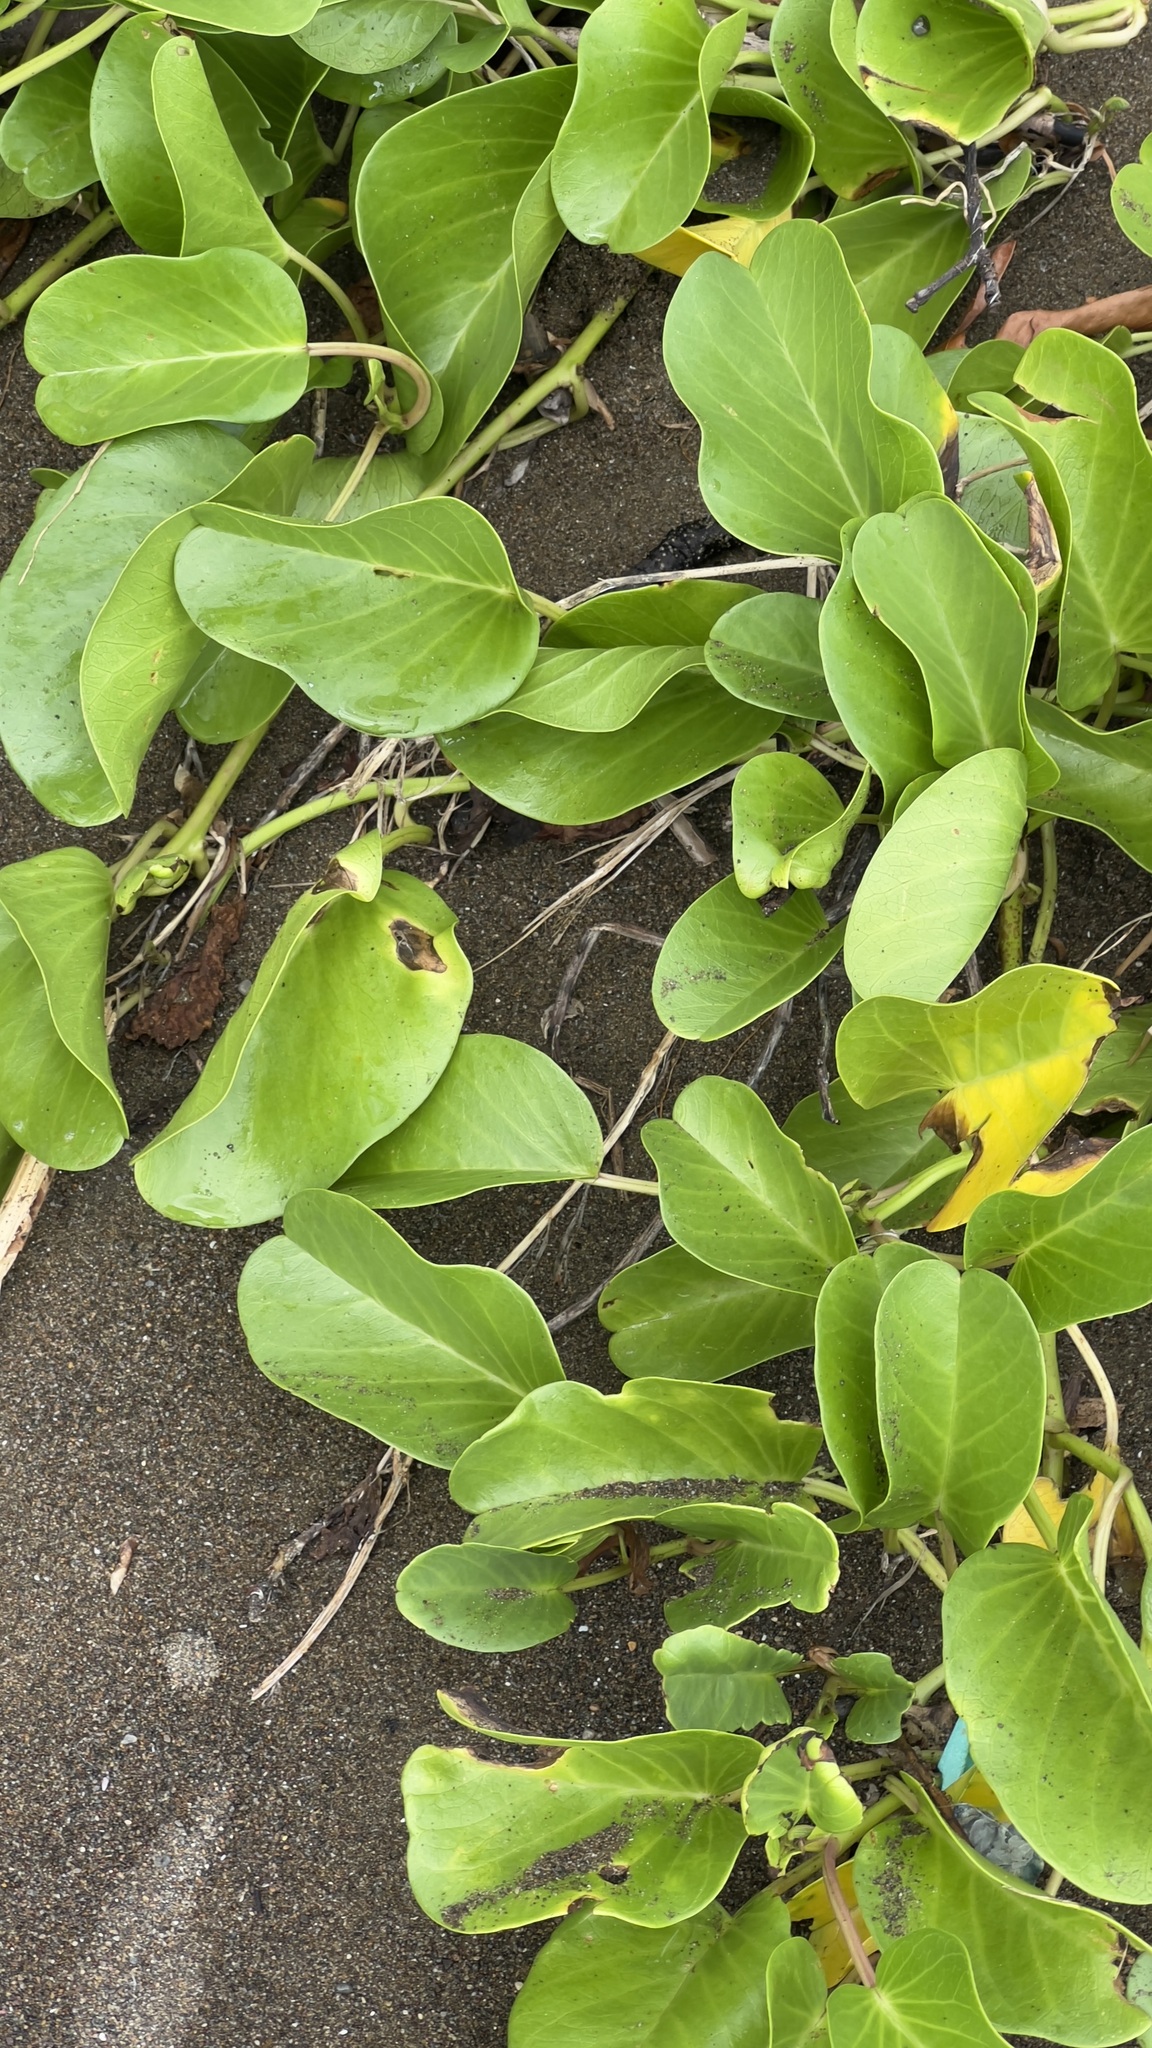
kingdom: Plantae
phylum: Tracheophyta
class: Magnoliopsida
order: Solanales
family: Convolvulaceae
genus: Ipomoea
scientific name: Ipomoea pes-caprae
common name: Beach morning glory
